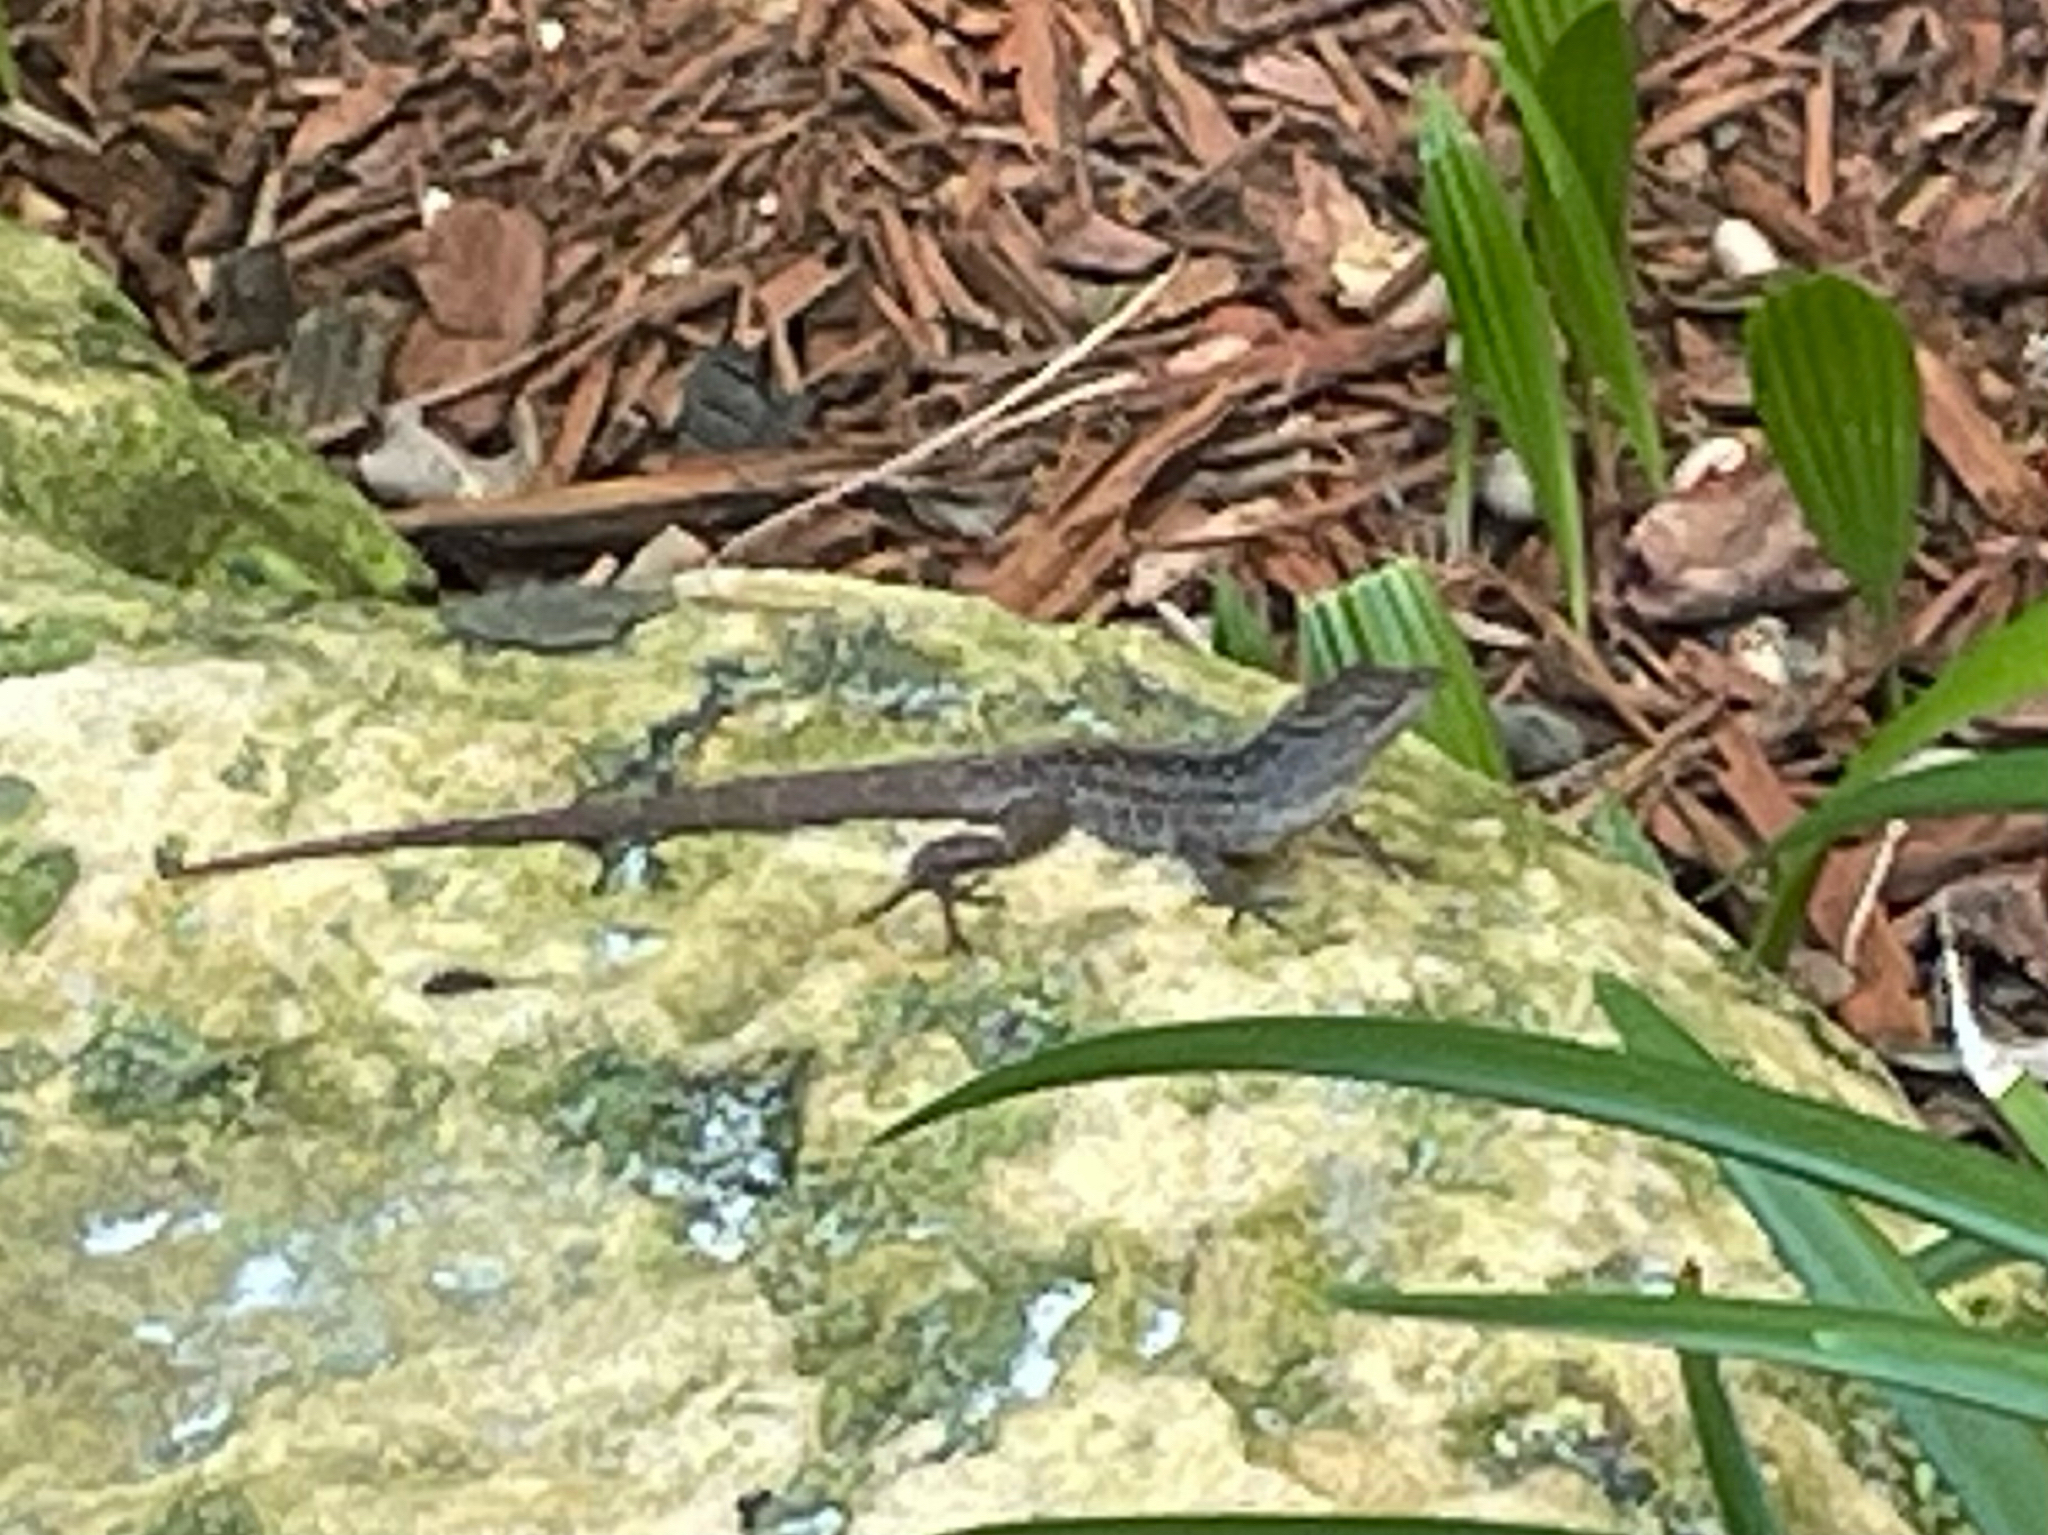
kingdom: Animalia
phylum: Chordata
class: Squamata
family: Dactyloidae
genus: Anolis
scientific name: Anolis sagrei
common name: Brown anole
